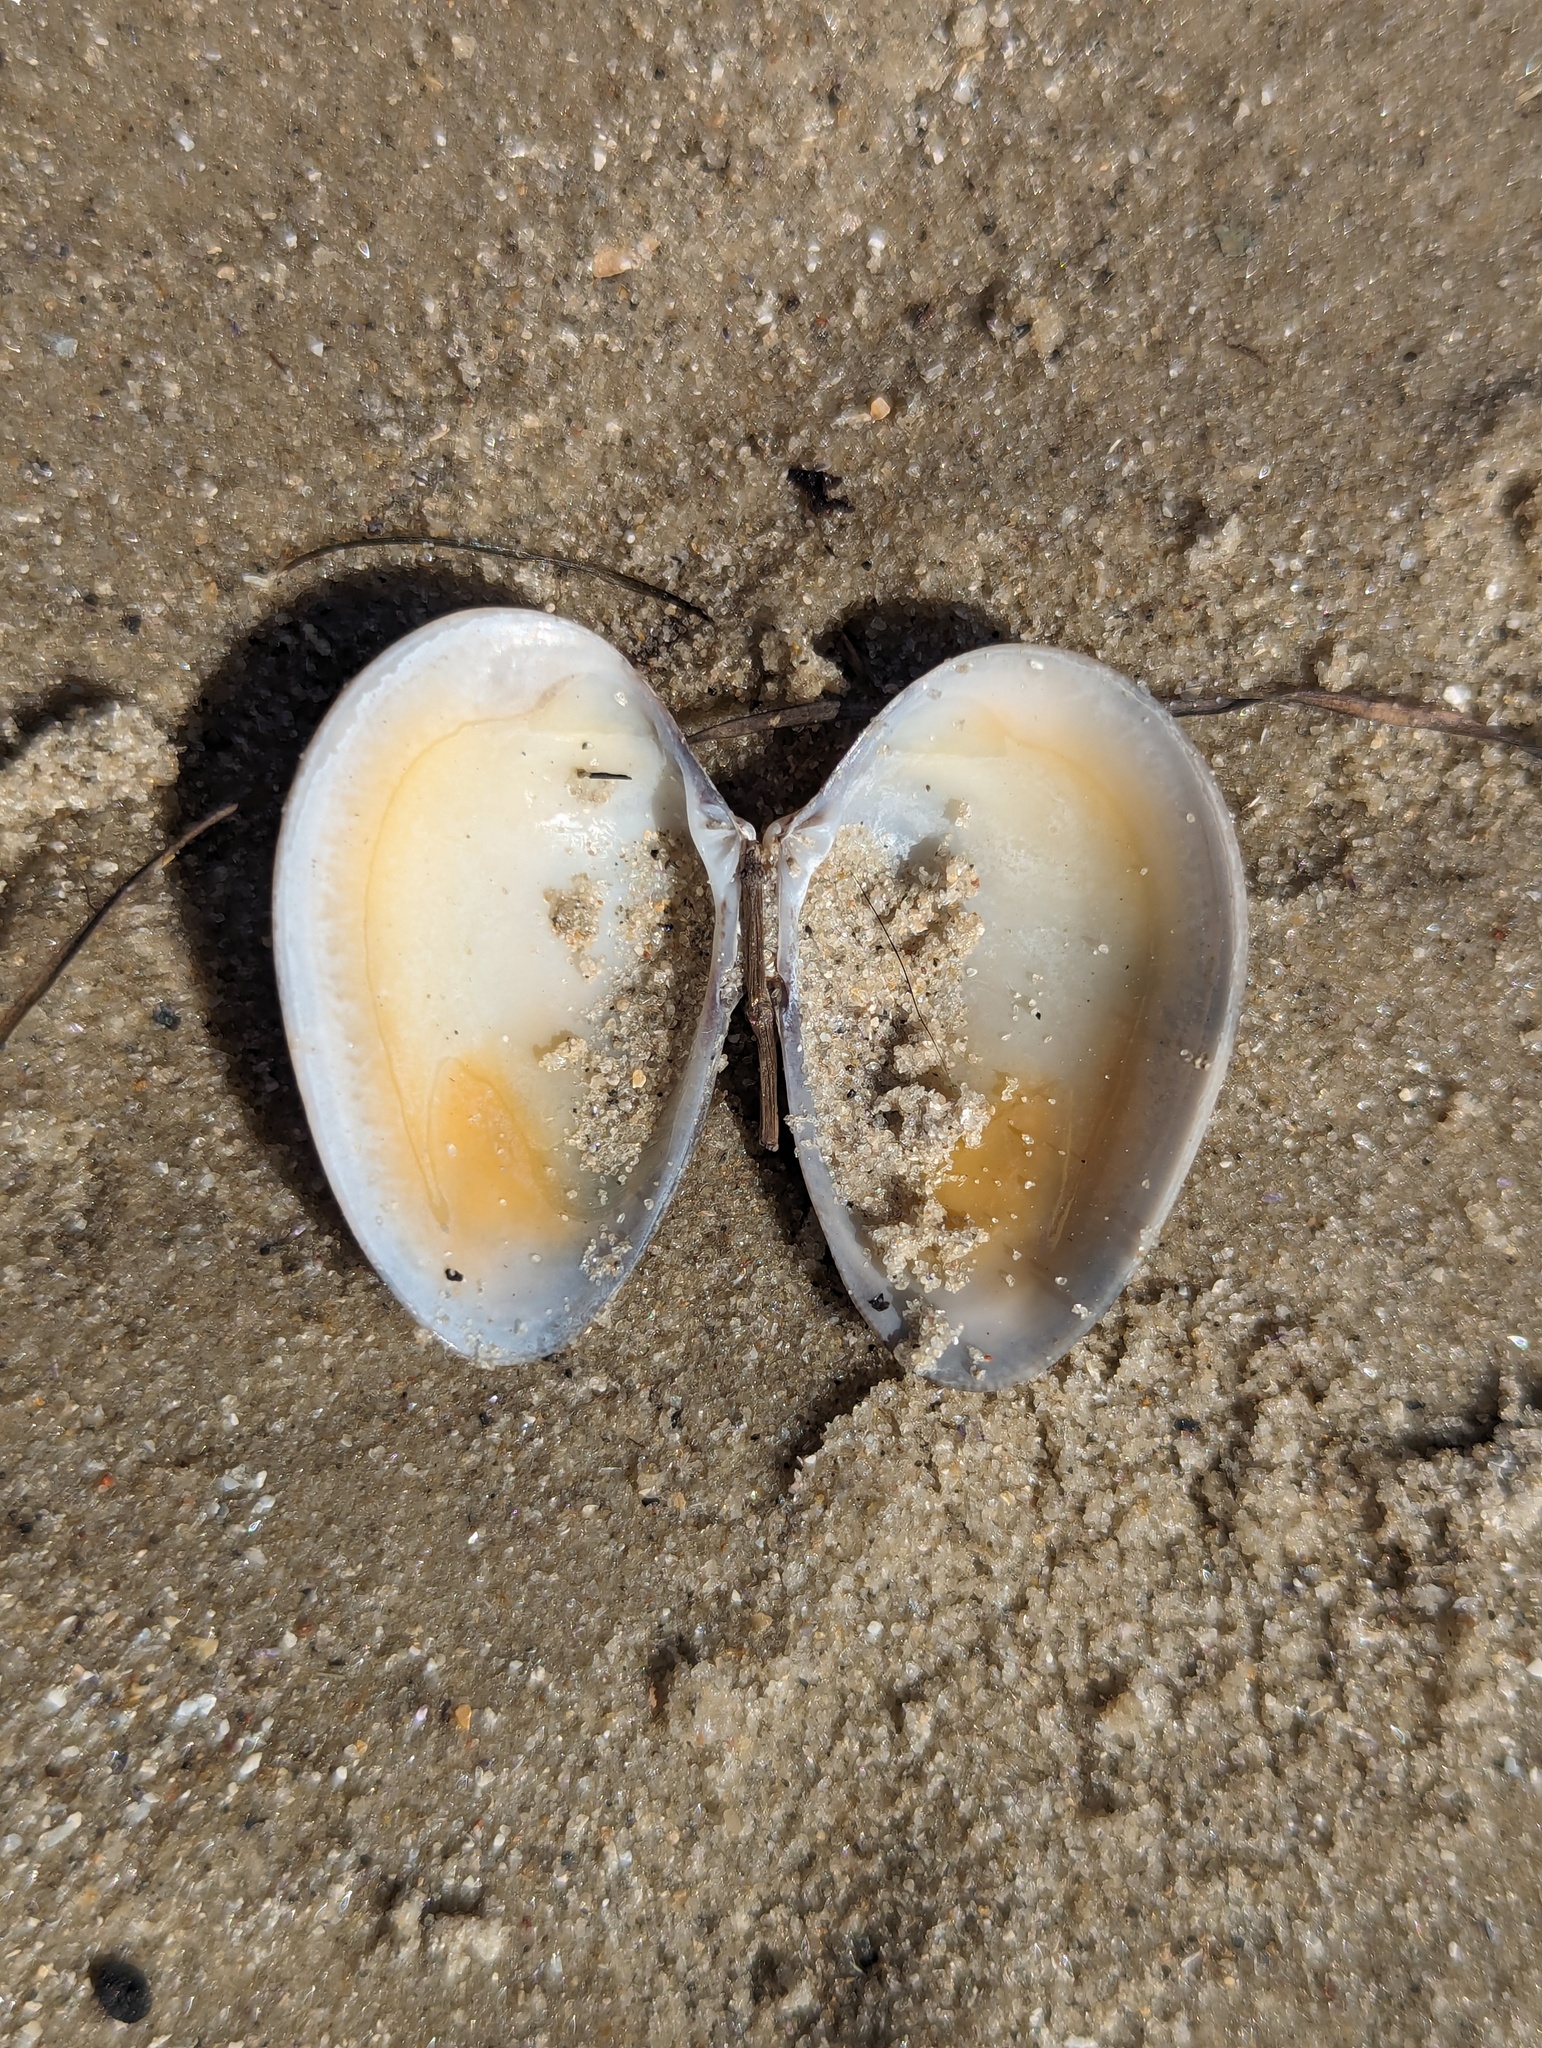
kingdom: Animalia
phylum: Mollusca
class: Bivalvia
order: Venerida
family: Veneridae
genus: Eumarcia
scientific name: Eumarcia fumigata
